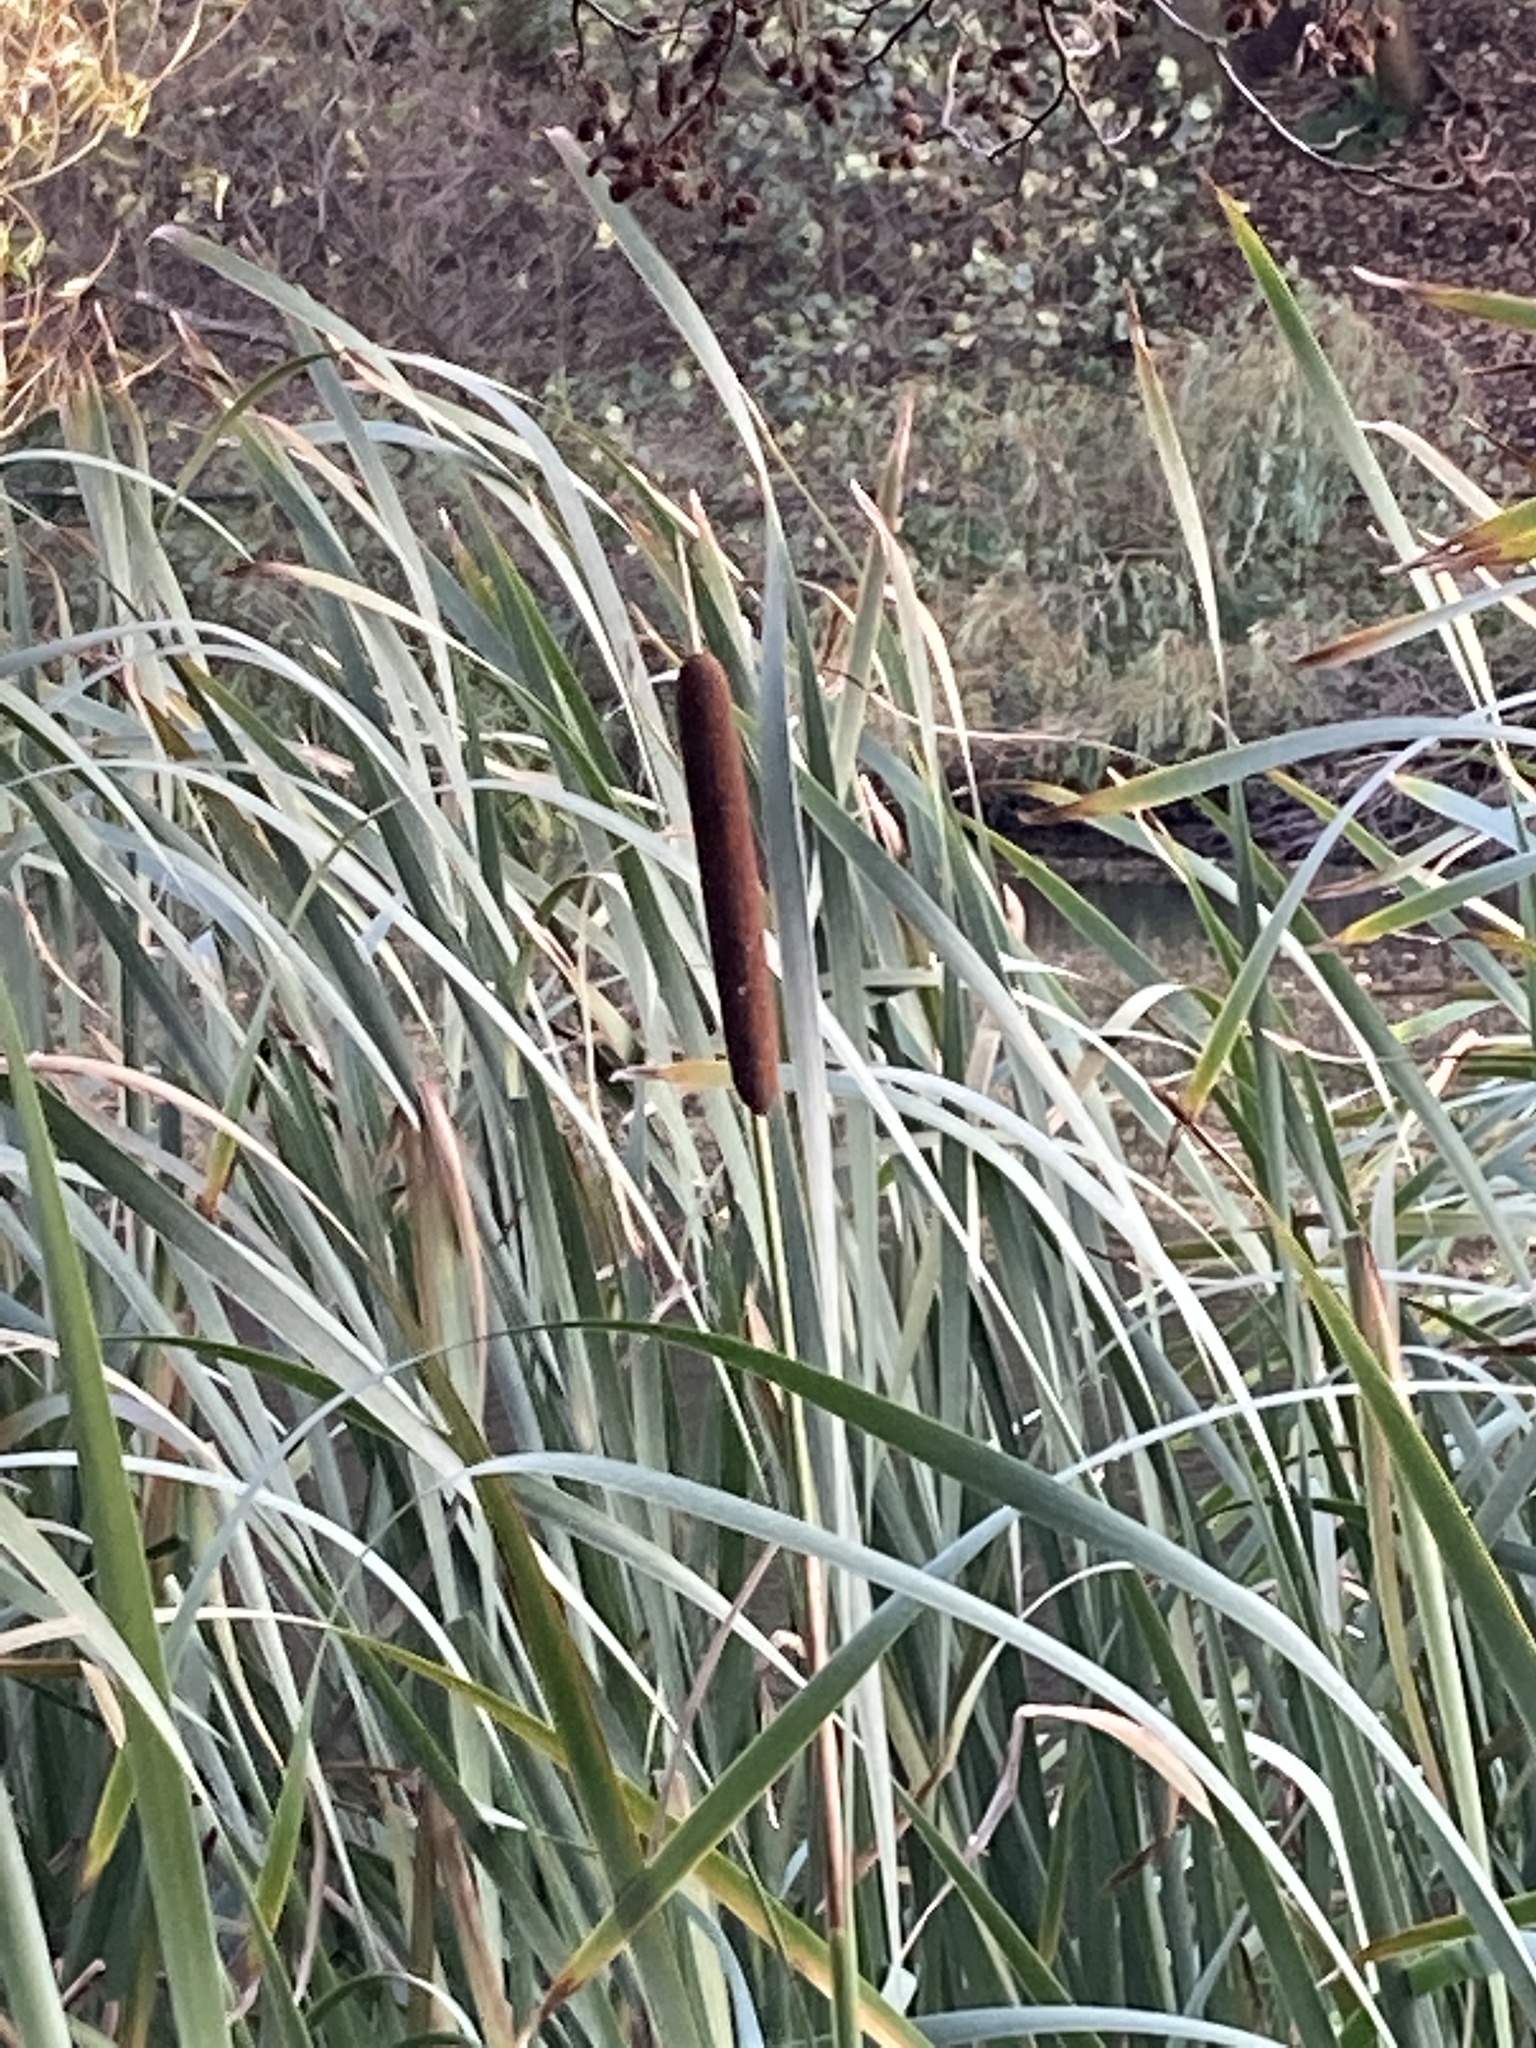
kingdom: Plantae
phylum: Tracheophyta
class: Liliopsida
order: Poales
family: Typhaceae
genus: Typha
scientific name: Typha latifolia
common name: Broadleaf cattail
